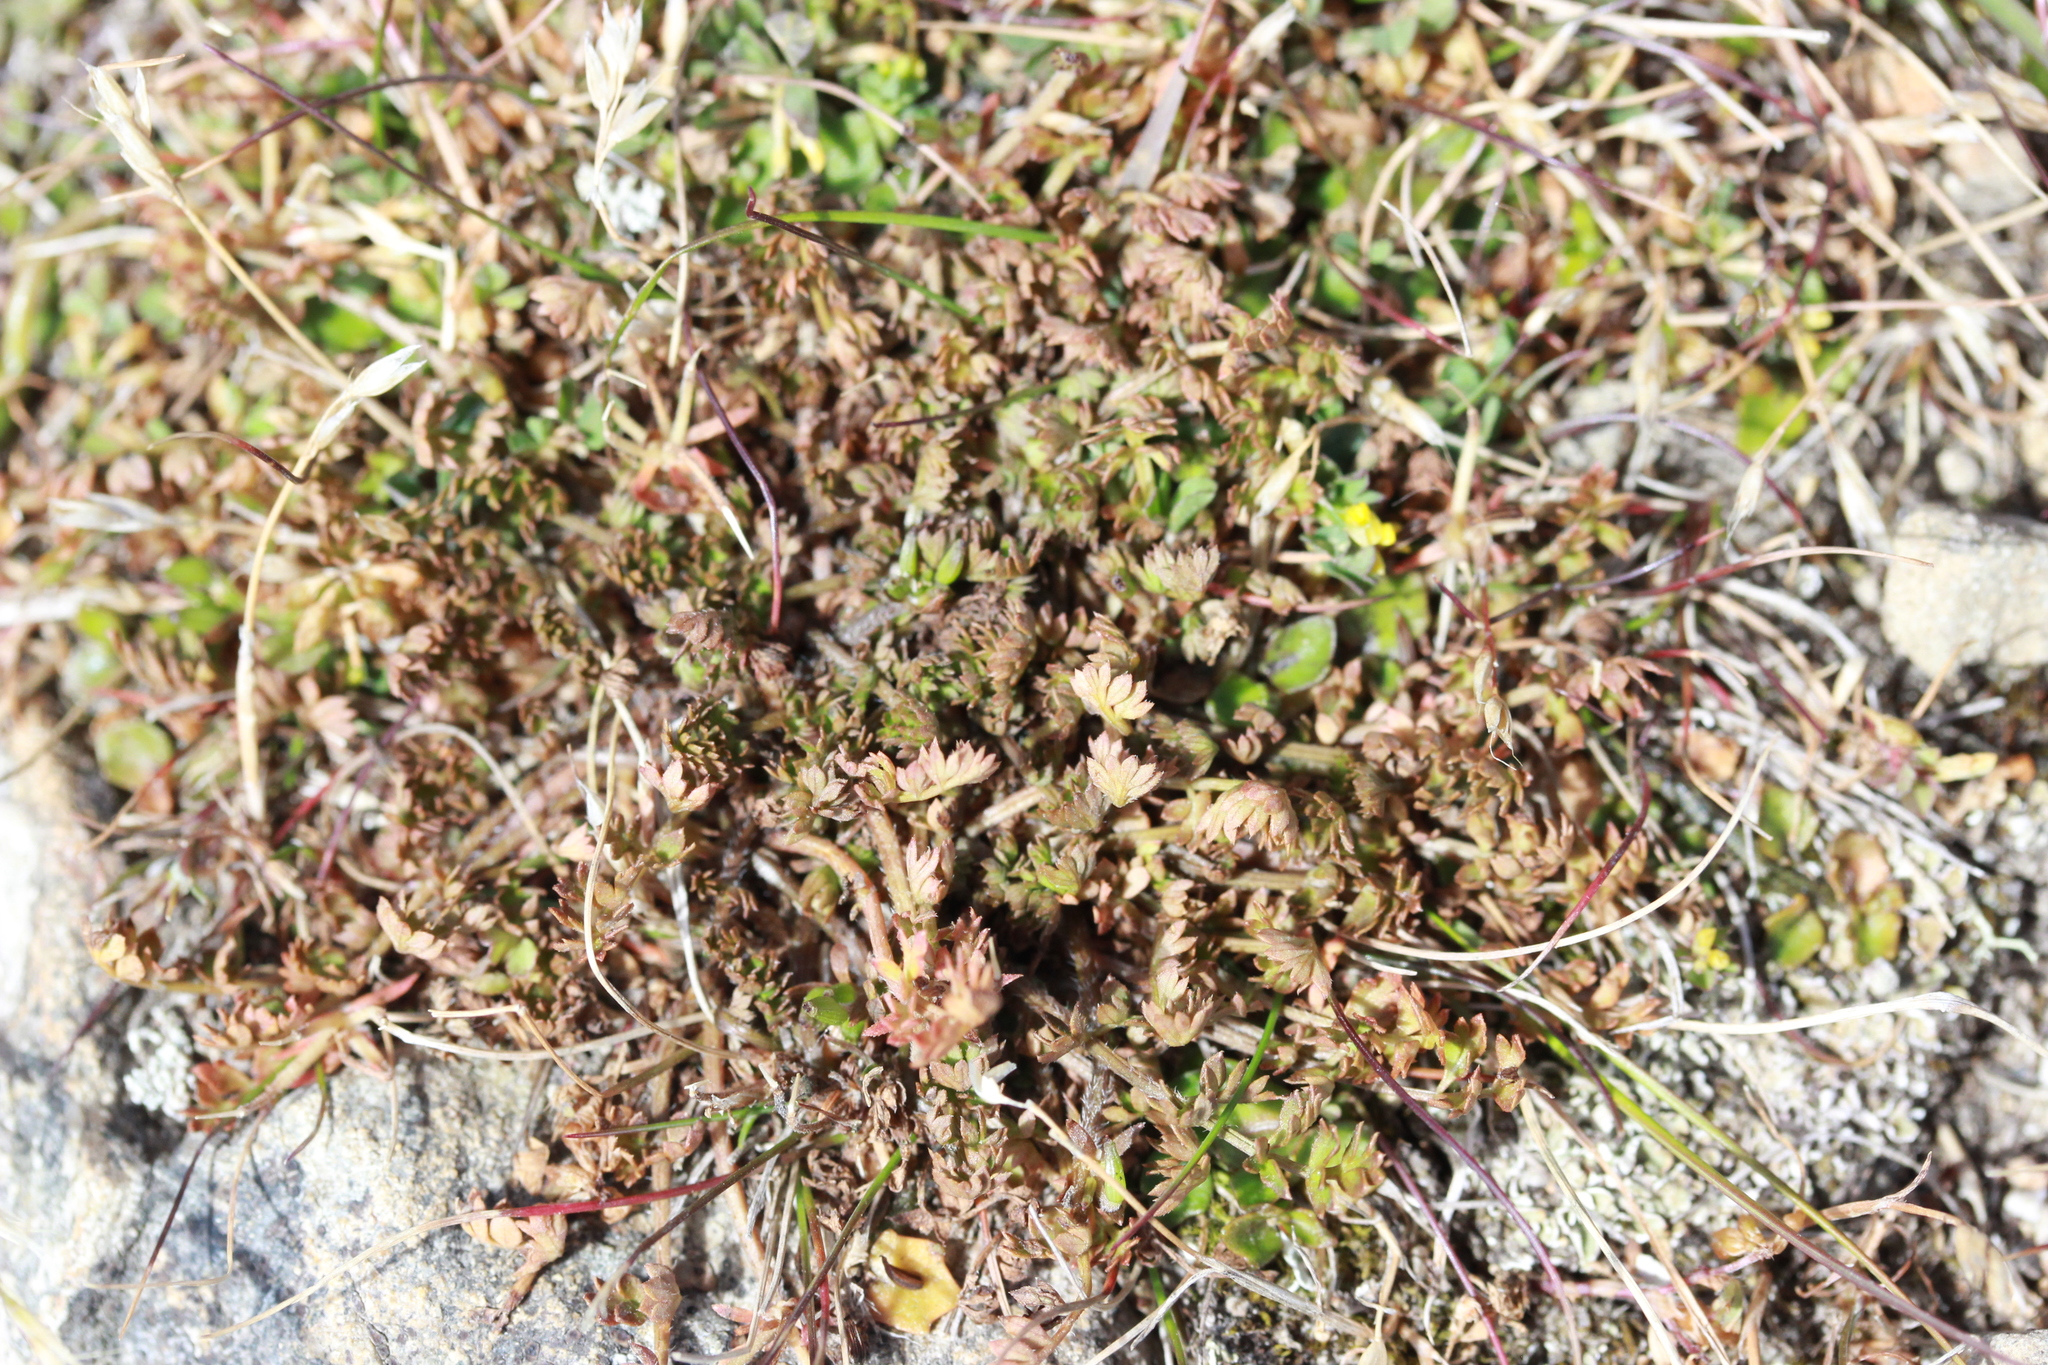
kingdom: Plantae
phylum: Tracheophyta
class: Magnoliopsida
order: Apiales
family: Apiaceae
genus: Chaerophyllum
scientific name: Chaerophyllum colensoi
